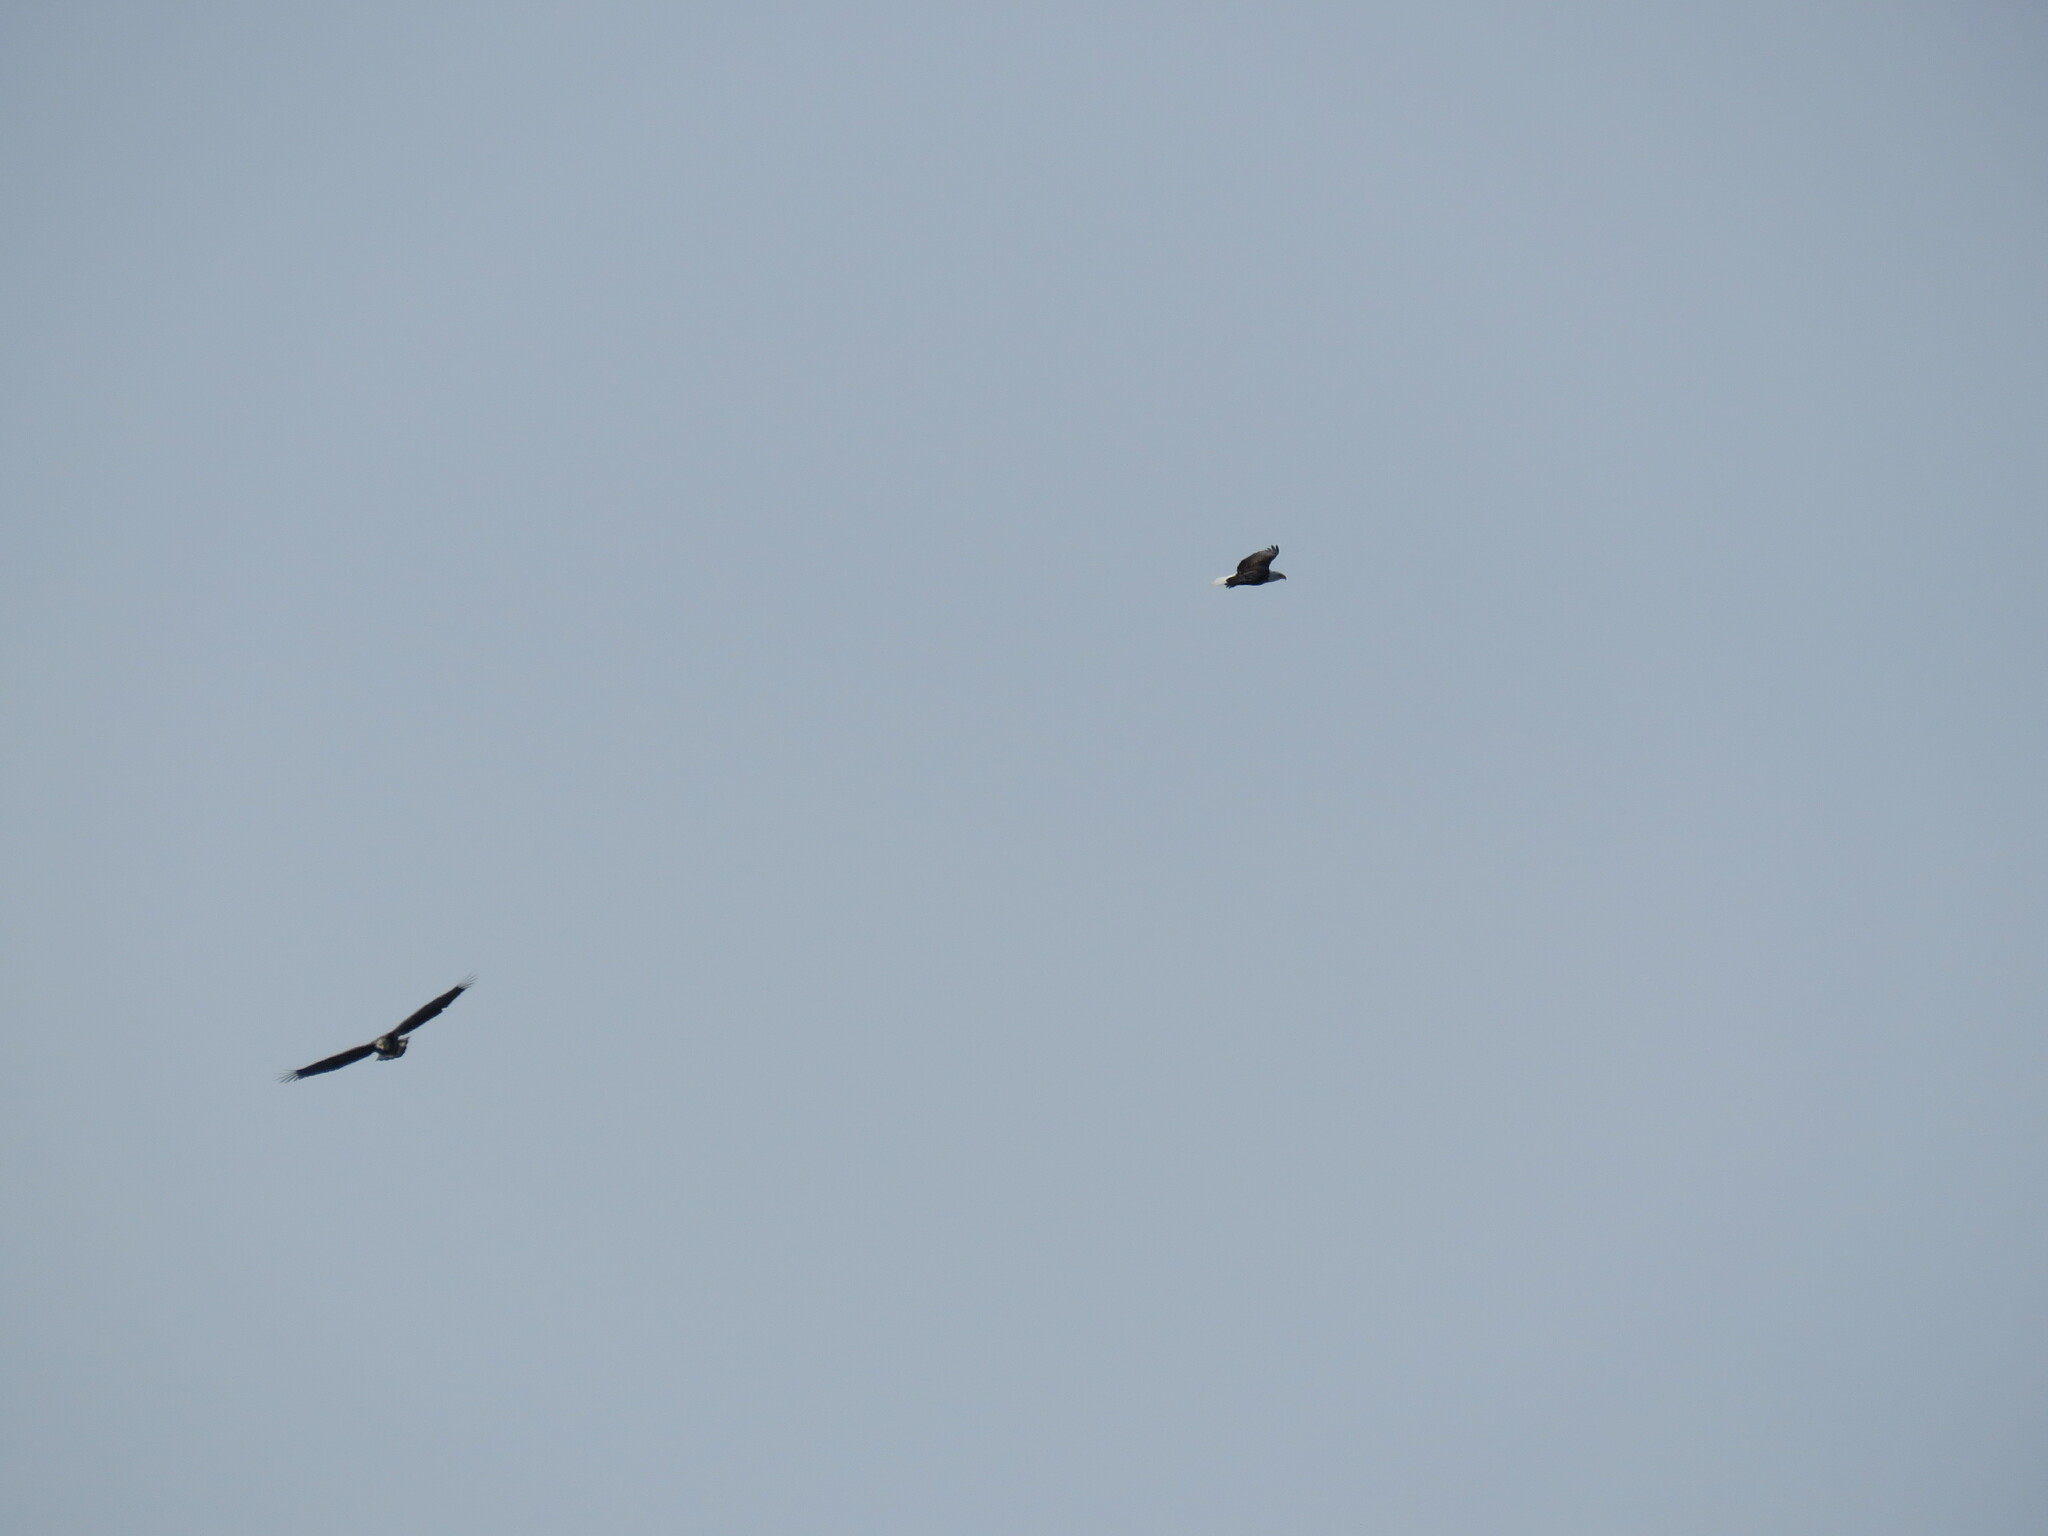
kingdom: Animalia
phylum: Chordata
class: Aves
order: Accipitriformes
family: Accipitridae
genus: Haliaeetus
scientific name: Haliaeetus leucocephalus
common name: Bald eagle
